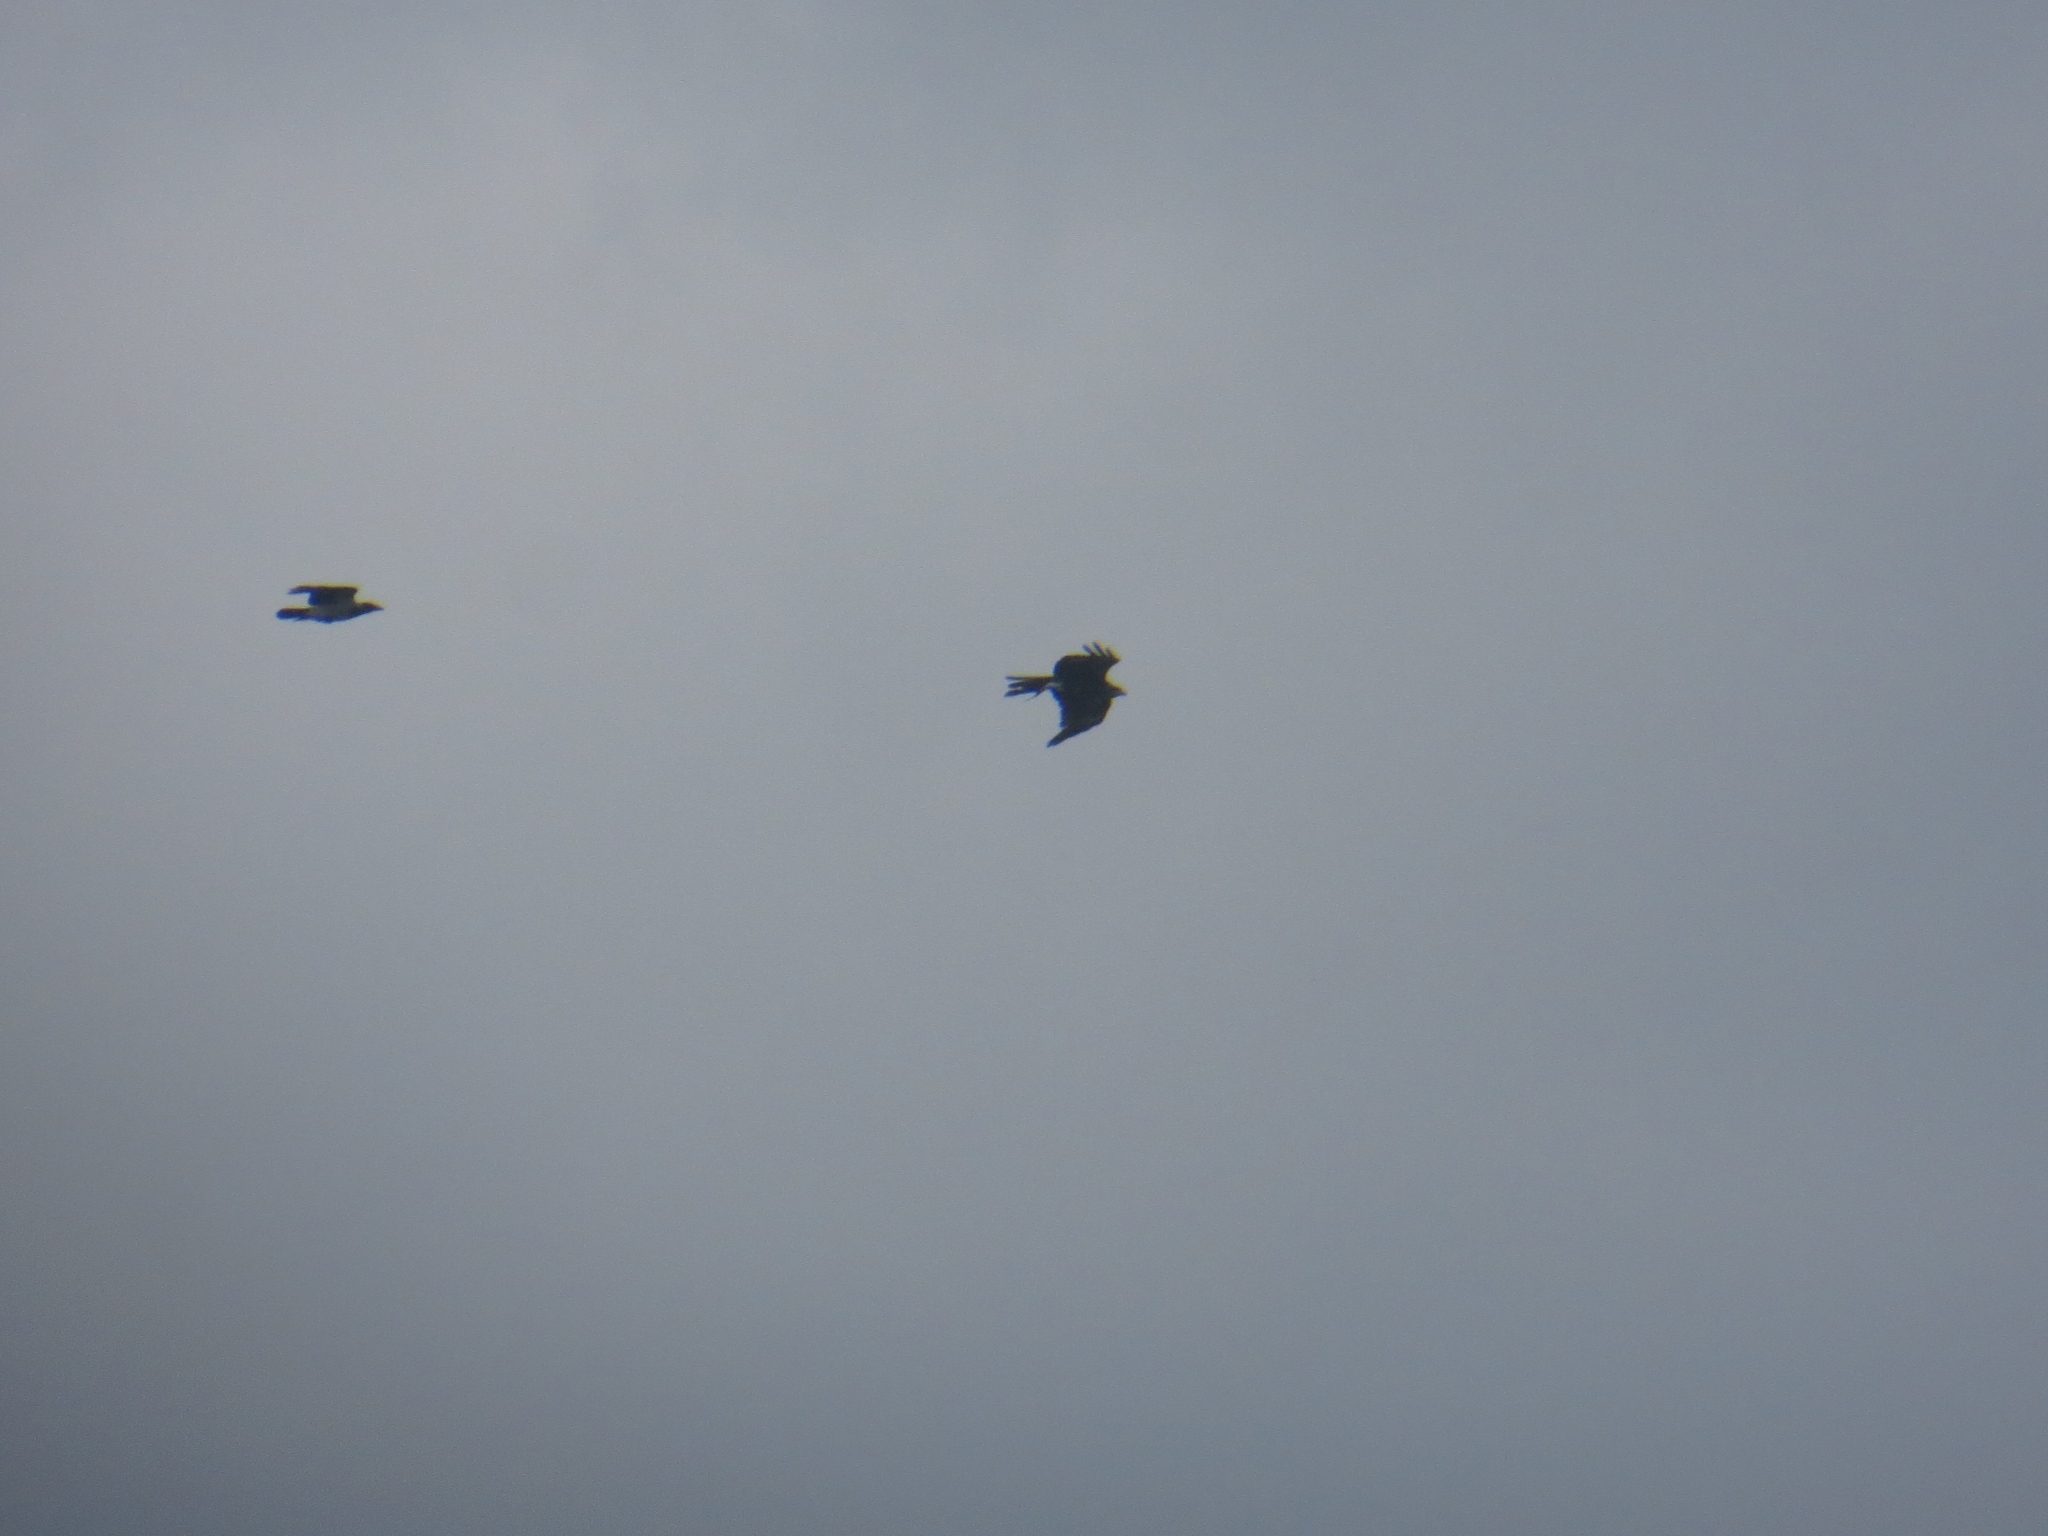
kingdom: Animalia
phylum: Chordata
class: Aves
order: Passeriformes
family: Corvidae
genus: Corvus
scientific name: Corvus cornix
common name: Hooded crow
